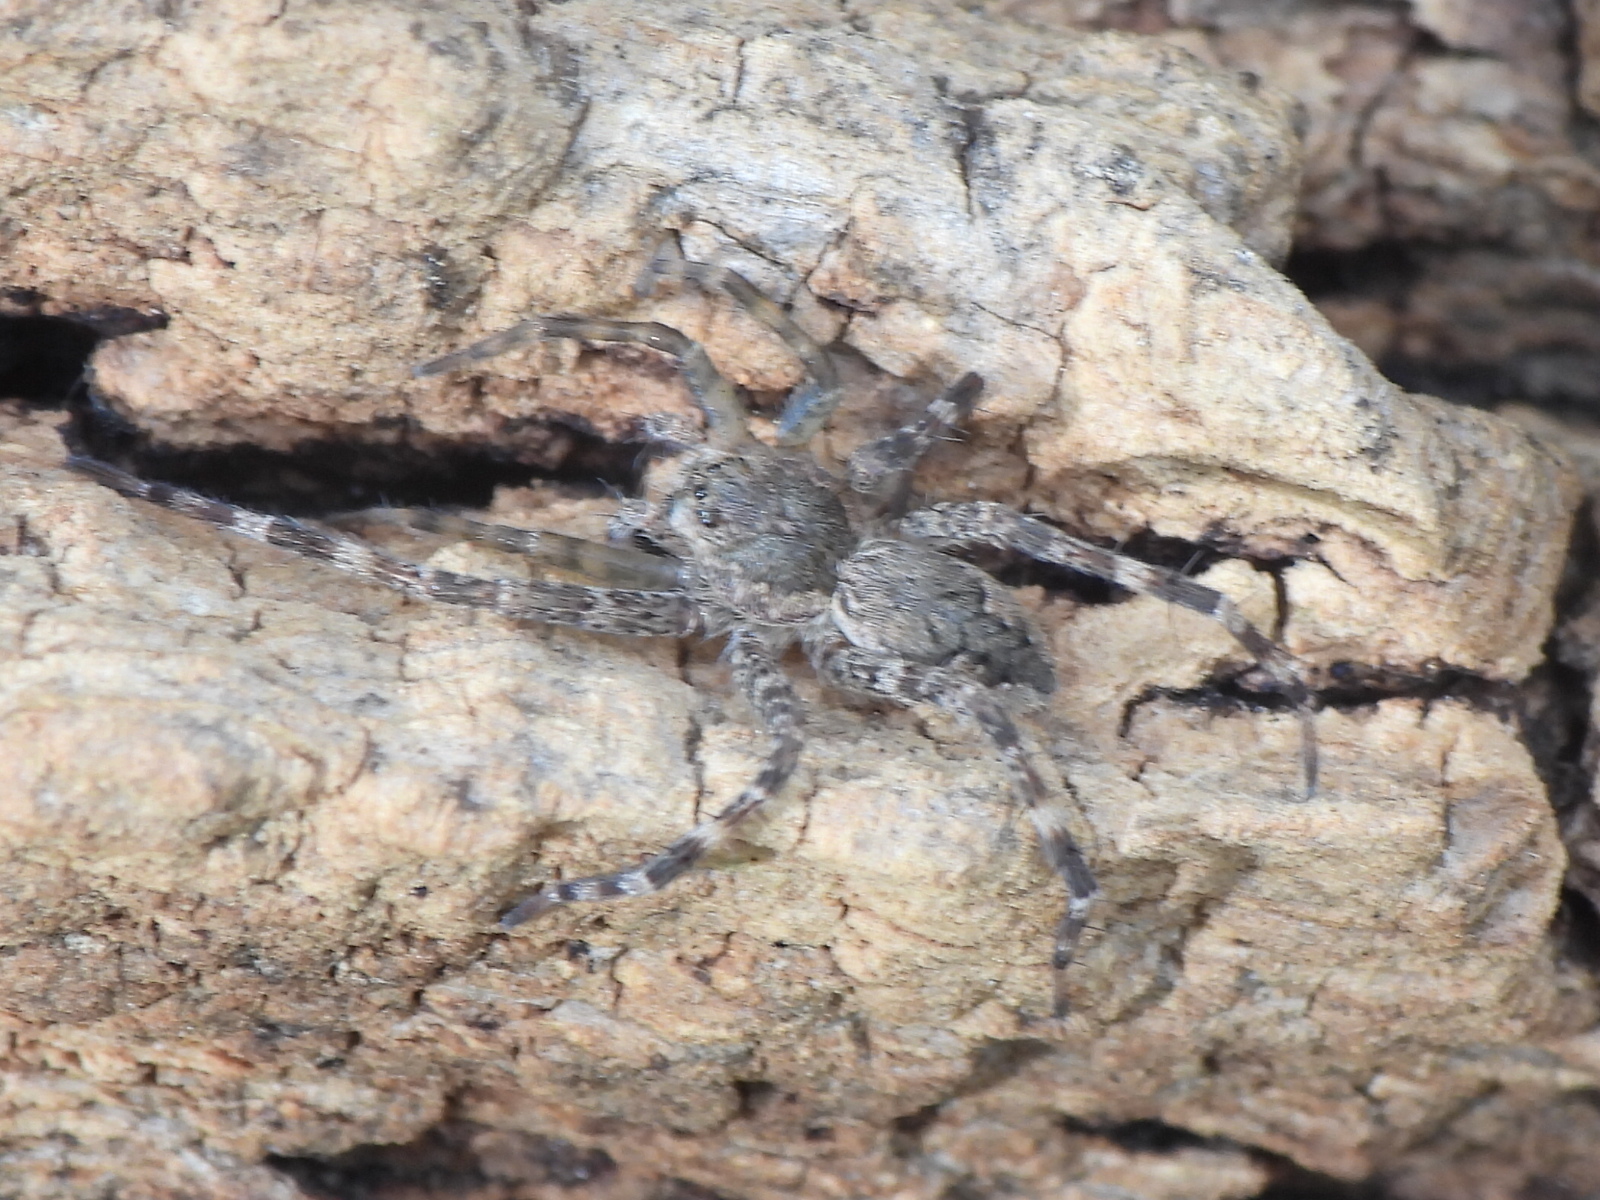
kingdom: Animalia
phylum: Arthropoda
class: Arachnida
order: Araneae
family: Pisauridae
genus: Dolomedes
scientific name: Dolomedes tenebrosus
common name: Dark fishing spider
